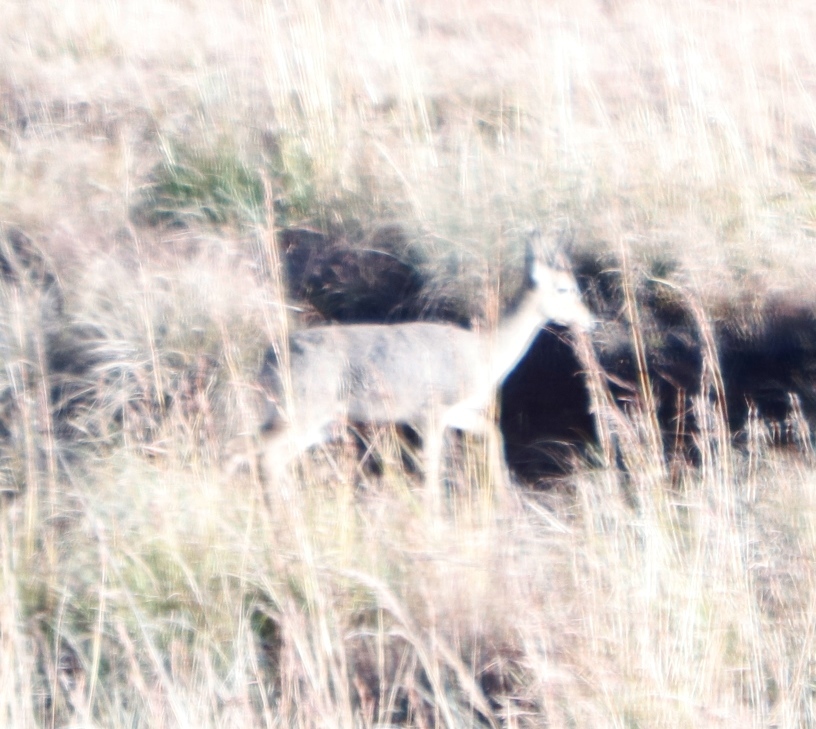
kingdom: Animalia
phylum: Chordata
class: Mammalia
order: Artiodactyla
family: Bovidae
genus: Pelea
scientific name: Pelea capreolus
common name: Common rhebok
